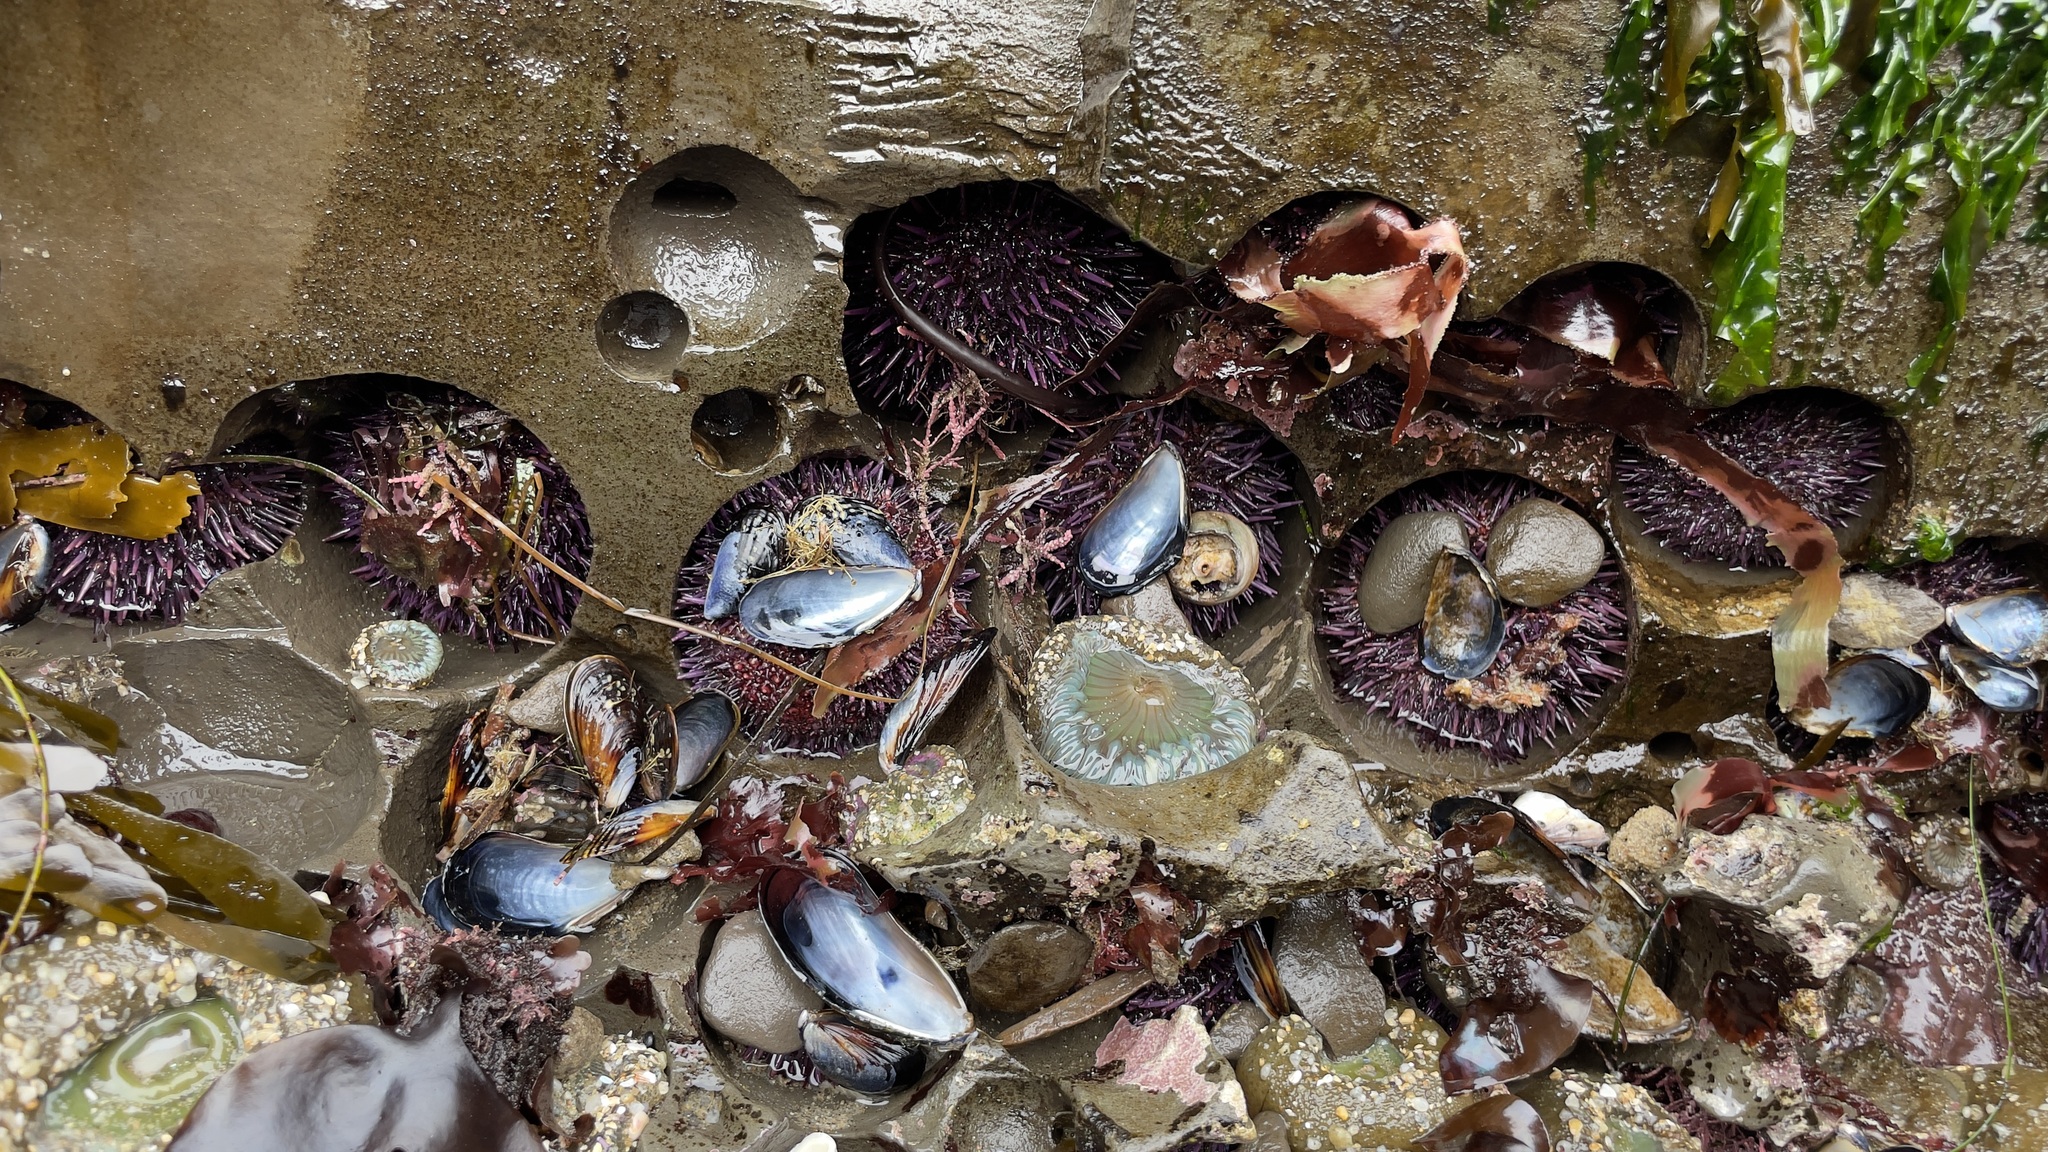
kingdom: Animalia
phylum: Echinodermata
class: Echinoidea
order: Camarodonta
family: Strongylocentrotidae
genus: Strongylocentrotus
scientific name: Strongylocentrotus purpuratus
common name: Purple sea urchin
